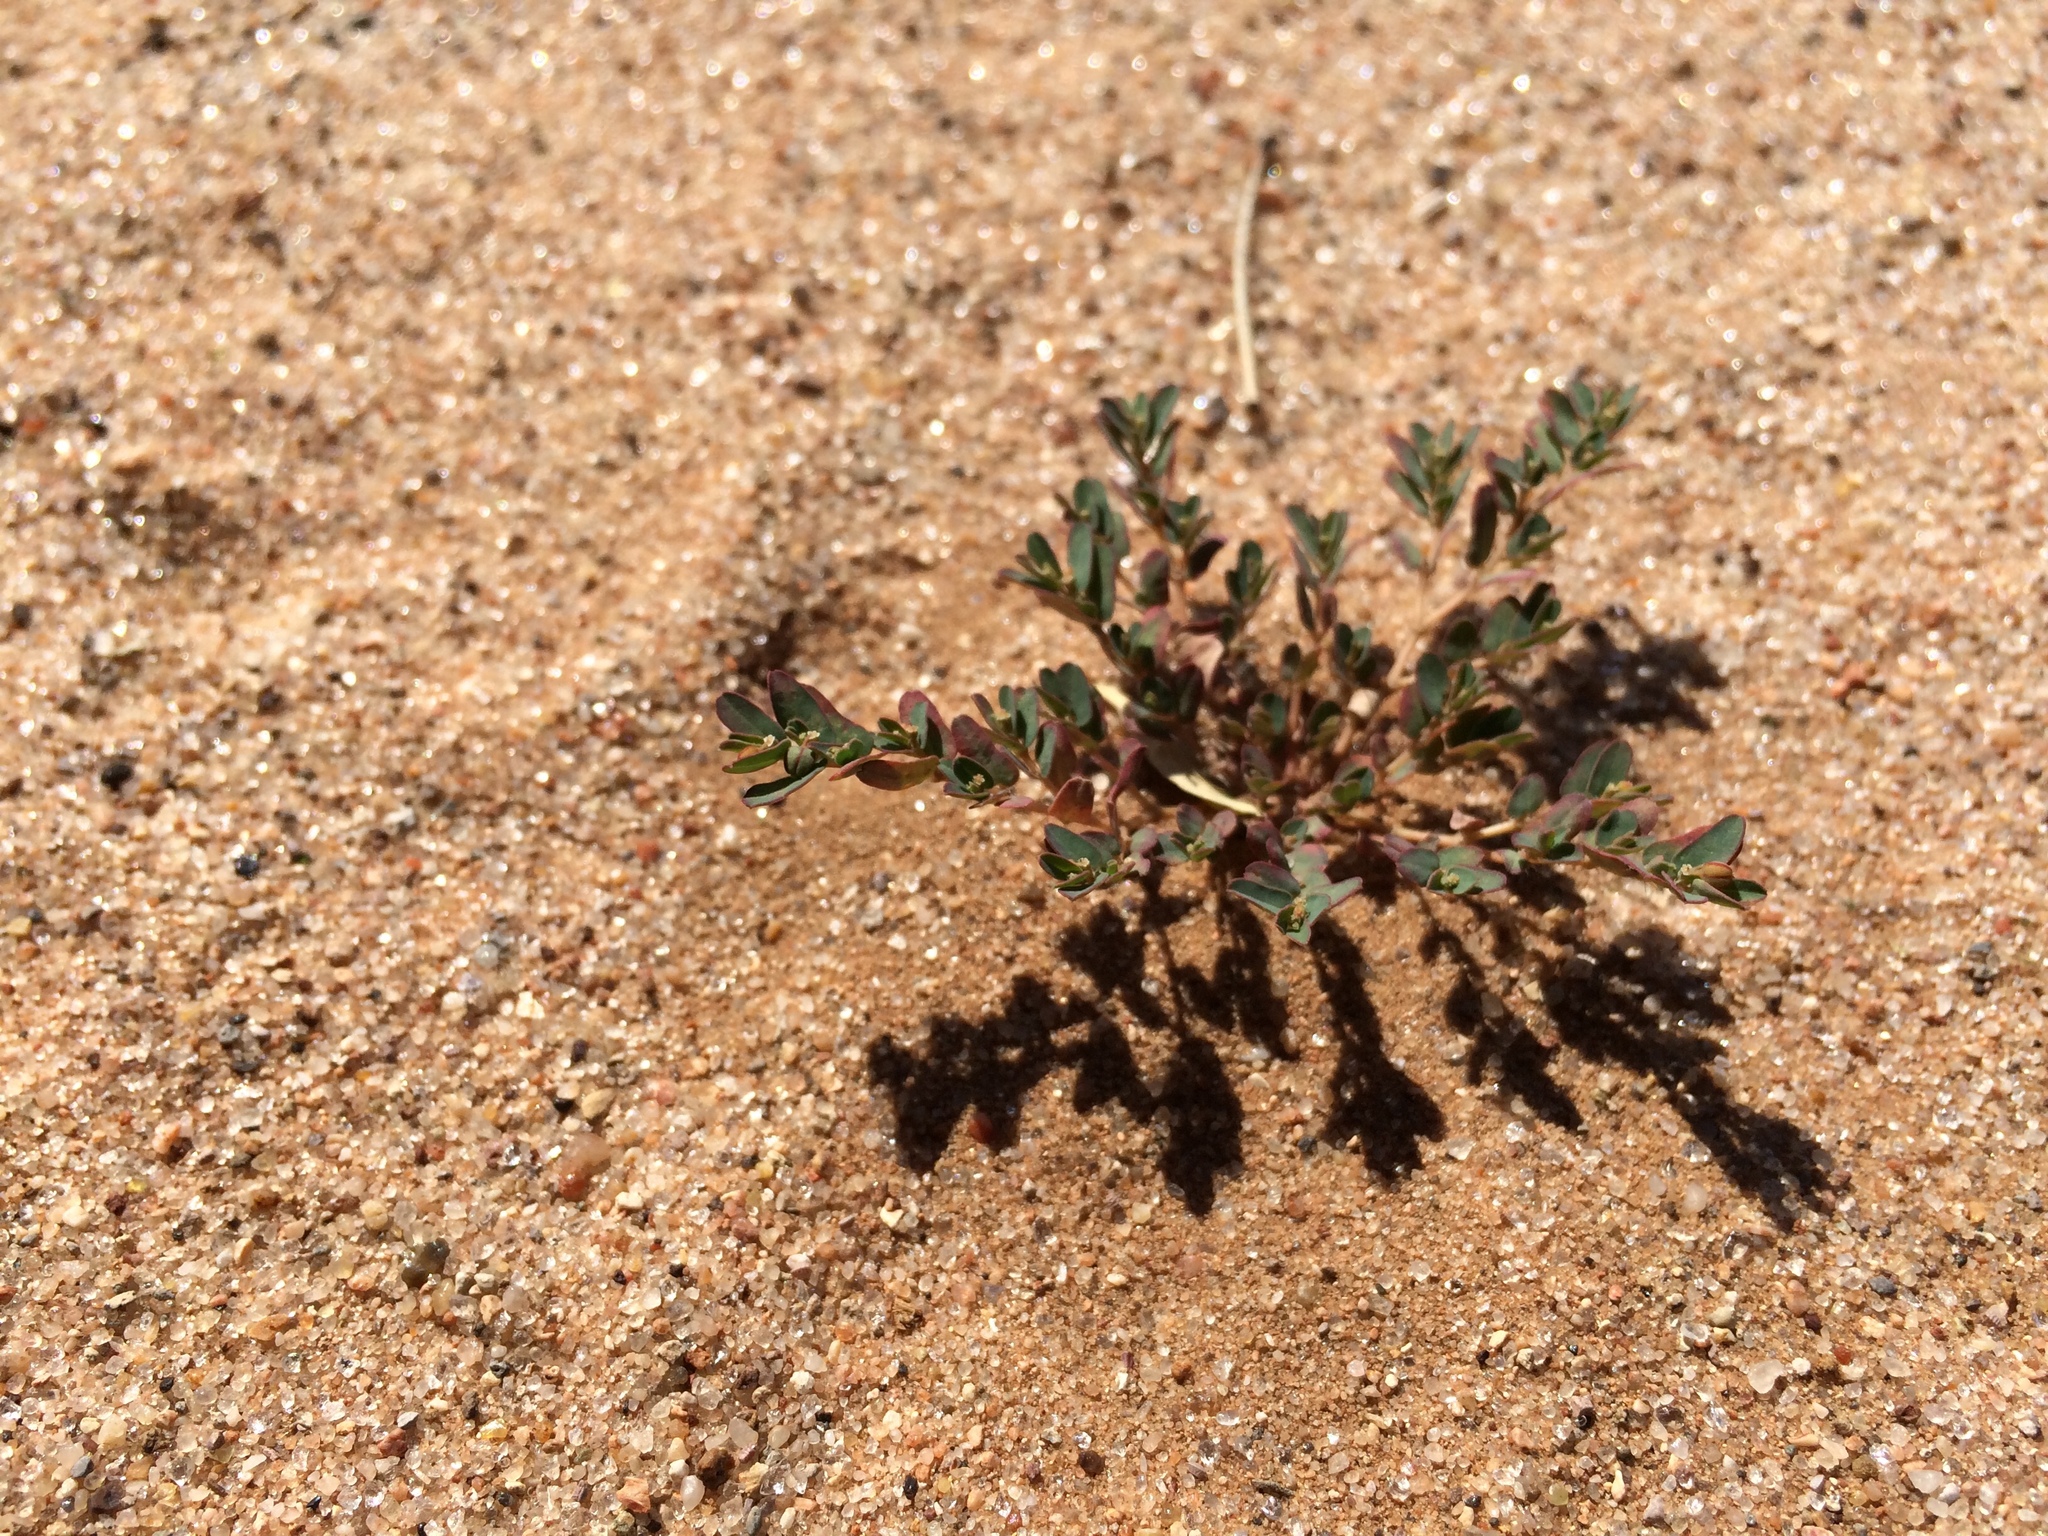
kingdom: Plantae
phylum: Tracheophyta
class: Magnoliopsida
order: Malpighiales
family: Euphorbiaceae
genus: Euphorbia
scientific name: Euphorbia glyptosperma
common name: Corrugate-seeded spurge
